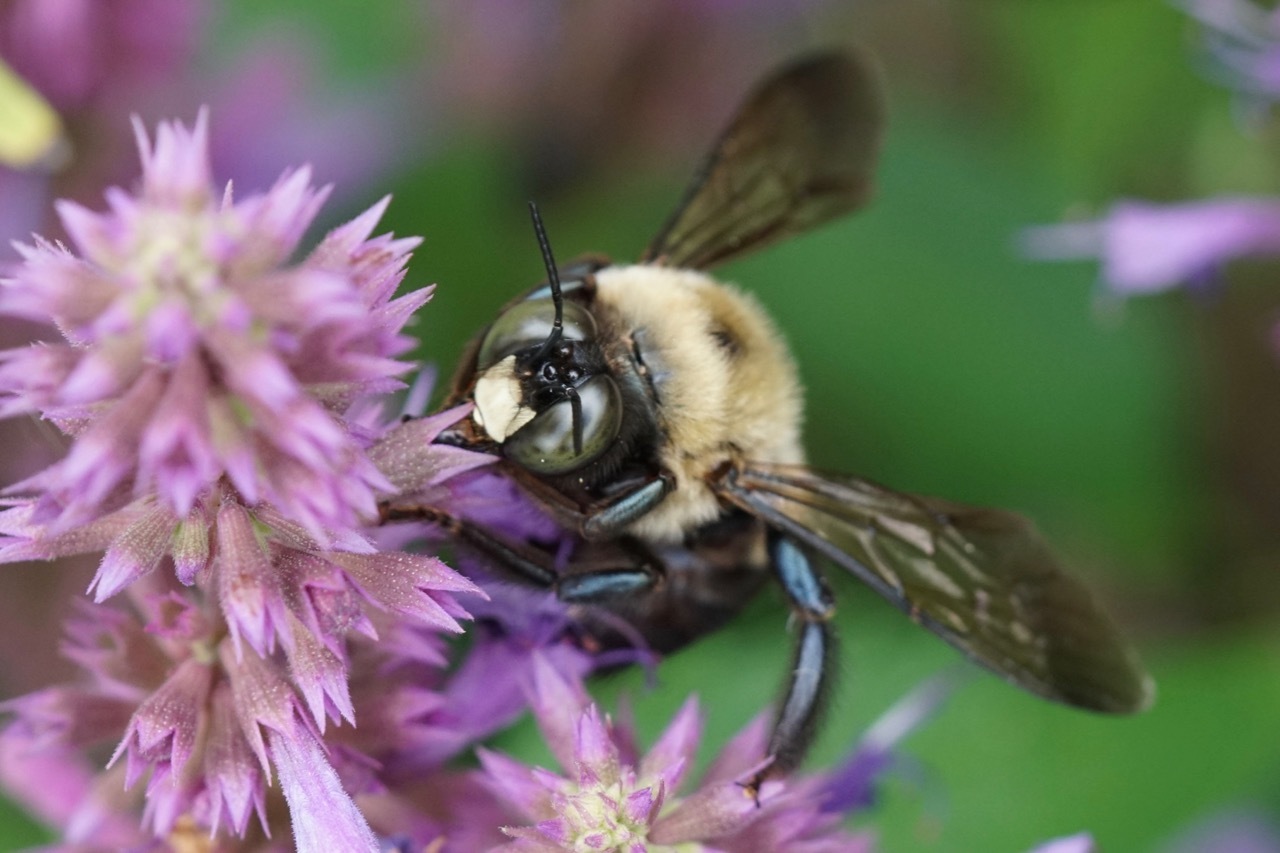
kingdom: Animalia
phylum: Arthropoda
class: Insecta
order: Hymenoptera
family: Apidae
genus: Xylocopa
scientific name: Xylocopa virginica
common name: Carpenter bee
